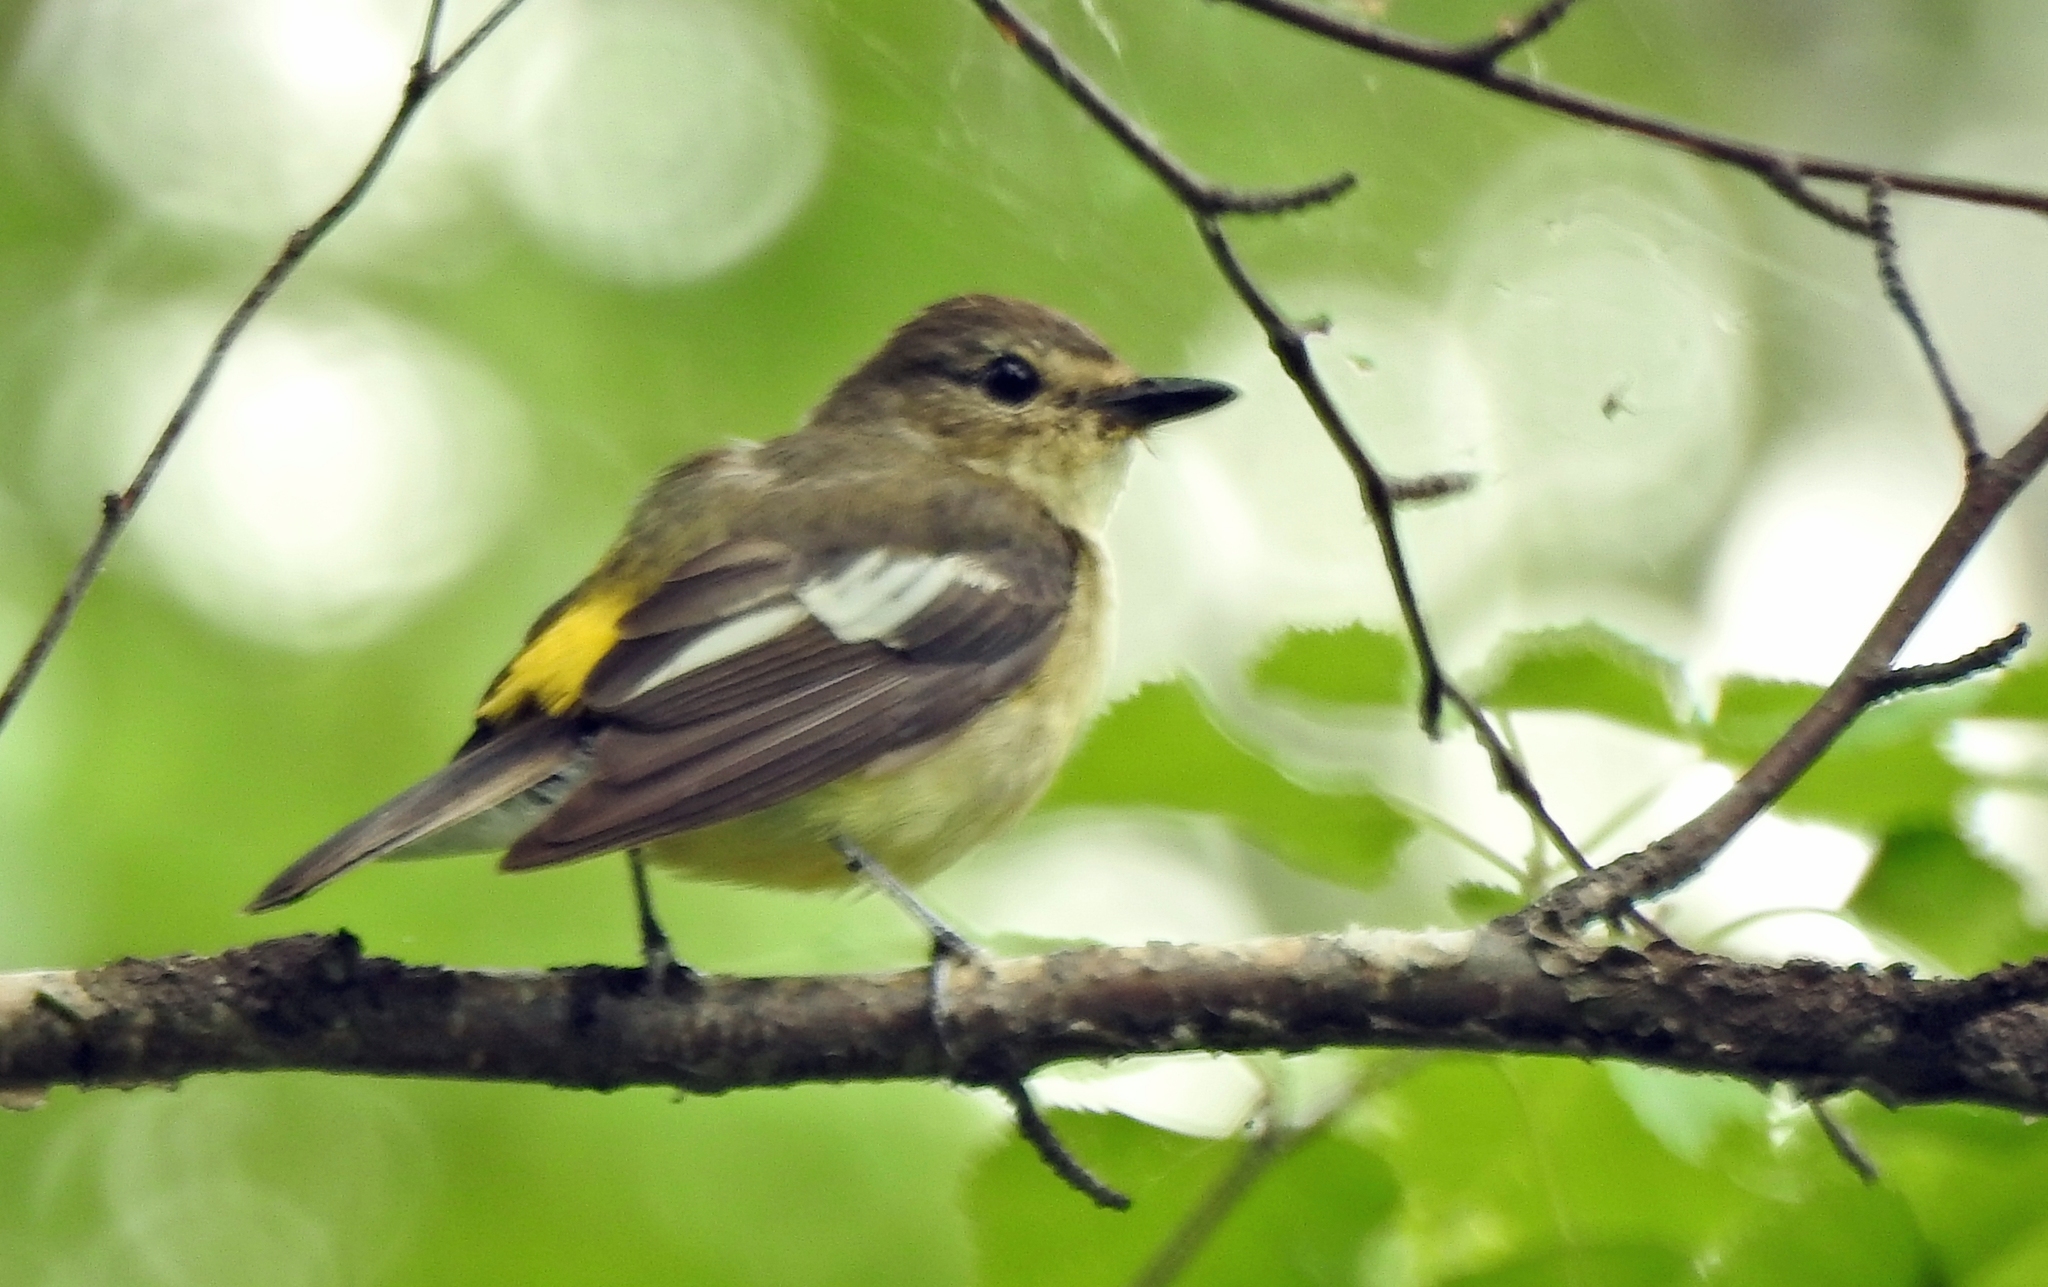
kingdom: Animalia
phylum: Chordata
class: Aves
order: Passeriformes
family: Muscicapidae
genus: Ficedula
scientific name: Ficedula zanthopygia
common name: Yellow-rumped flycatcher
